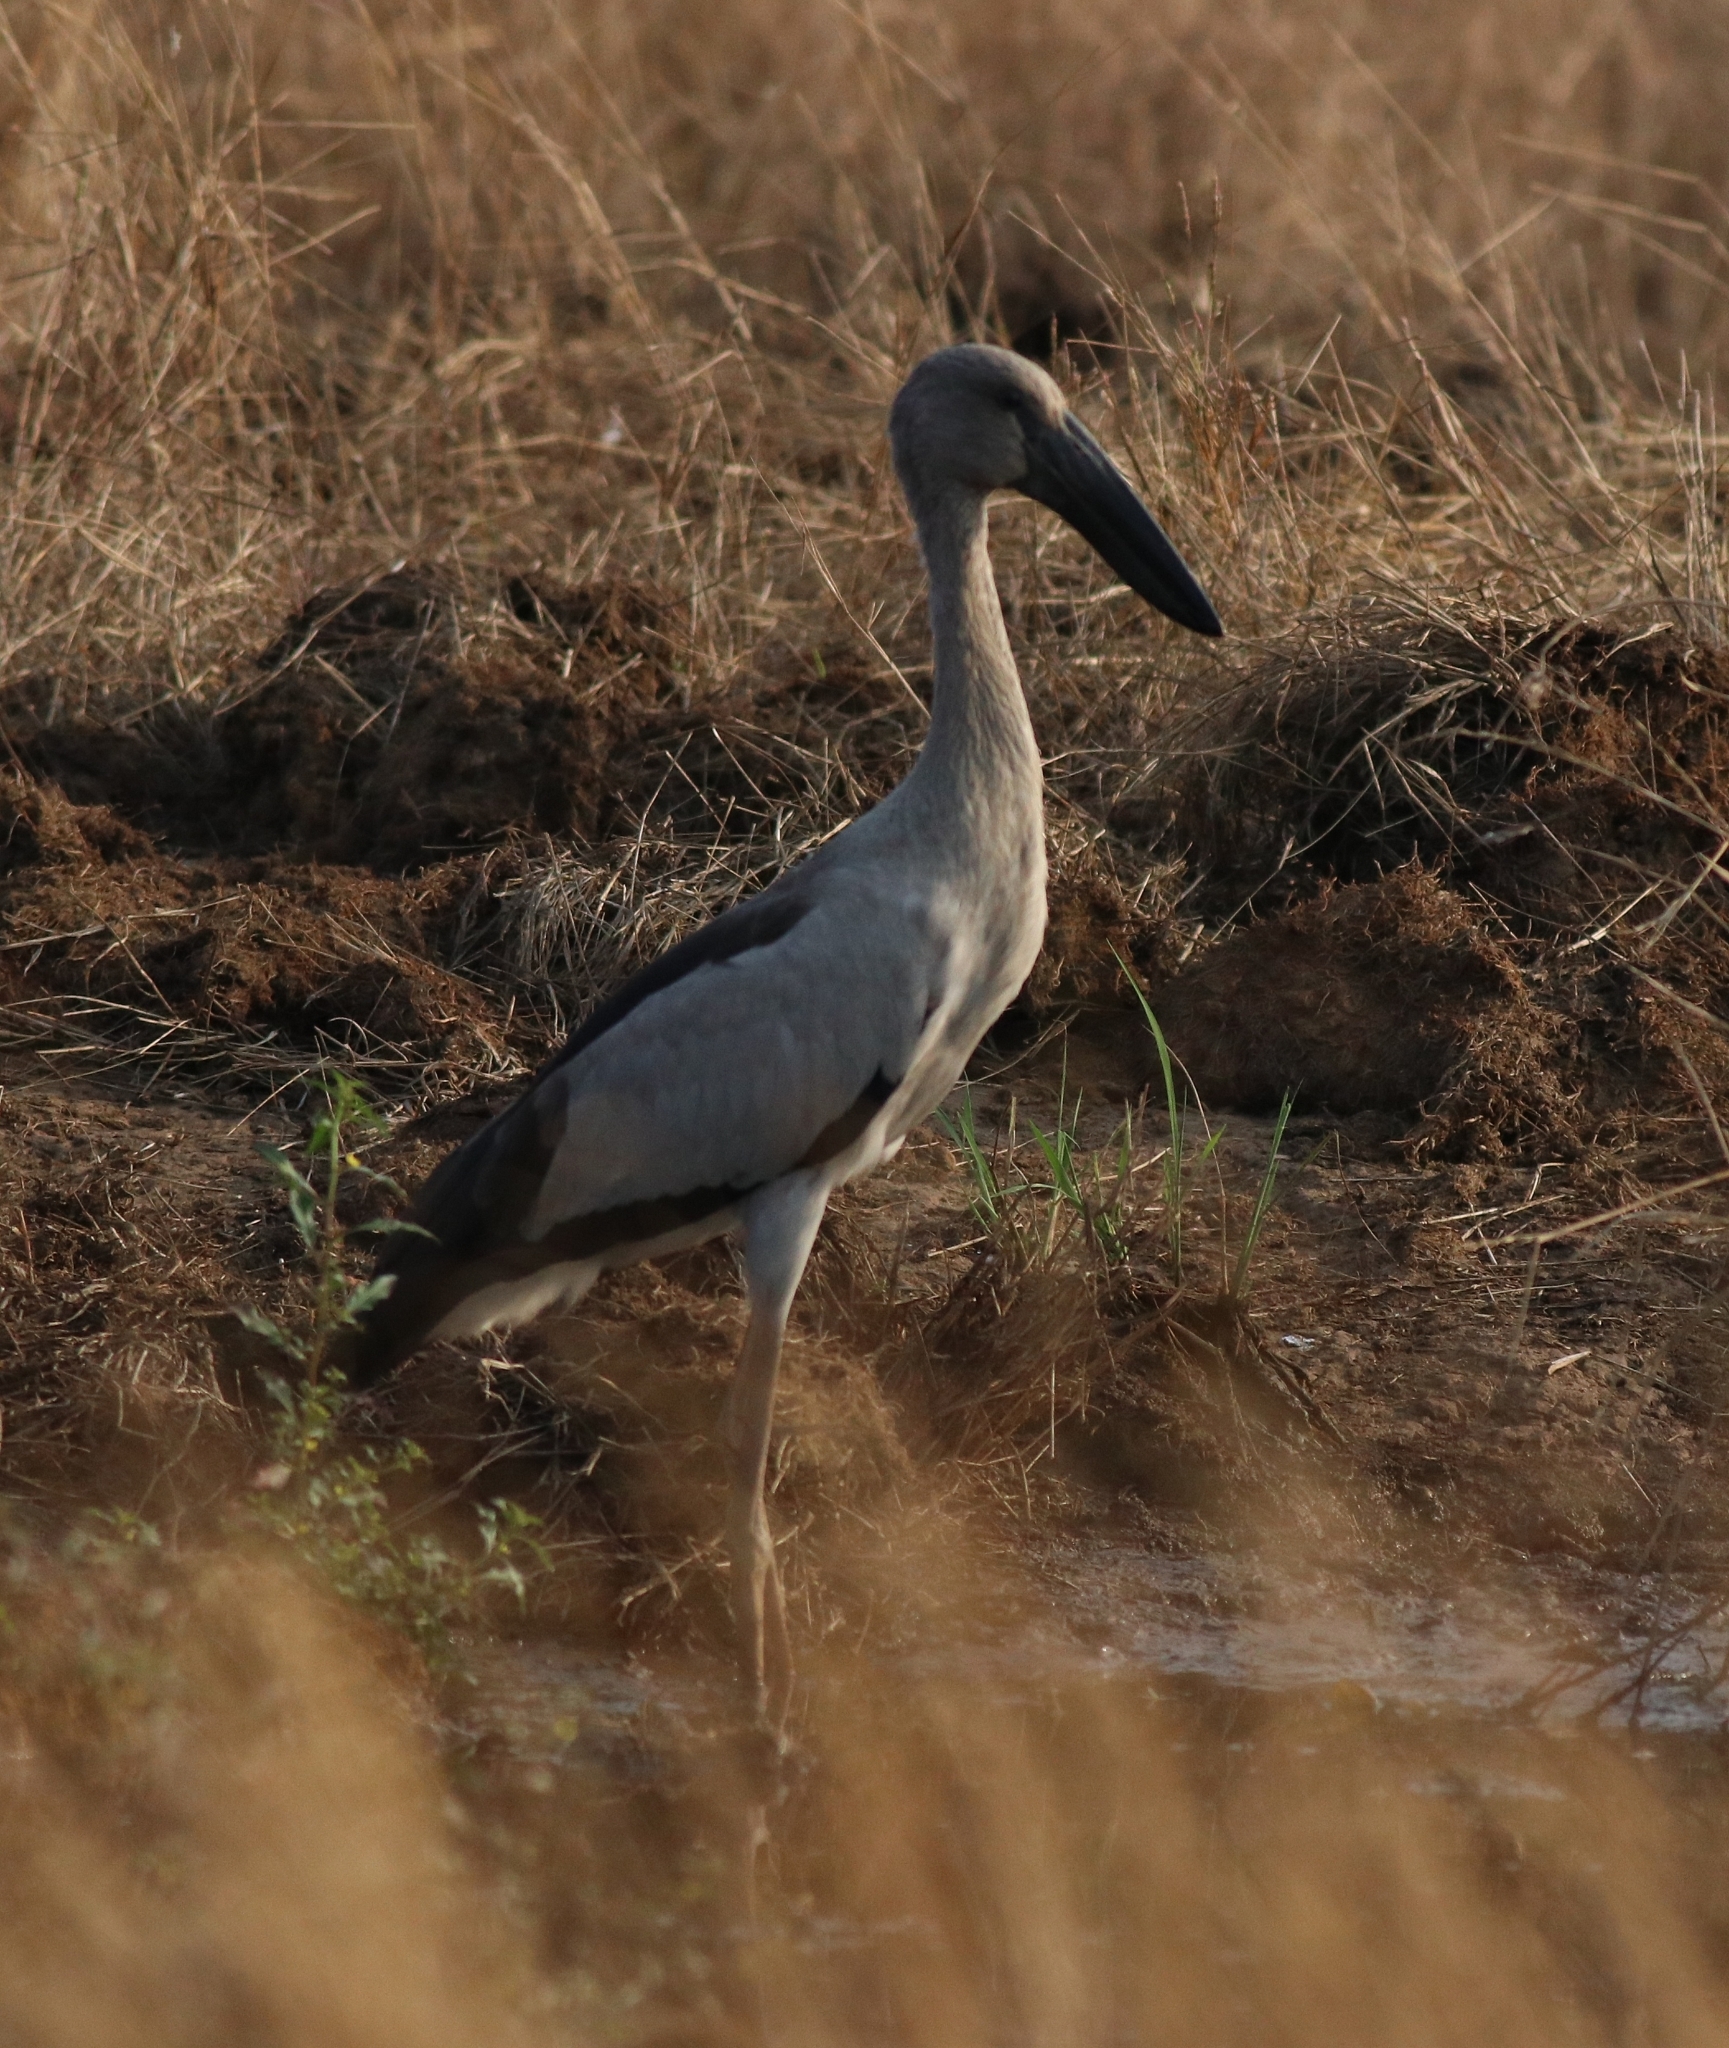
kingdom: Animalia
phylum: Chordata
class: Aves
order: Ciconiiformes
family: Ciconiidae
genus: Anastomus
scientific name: Anastomus oscitans
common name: Asian openbill
